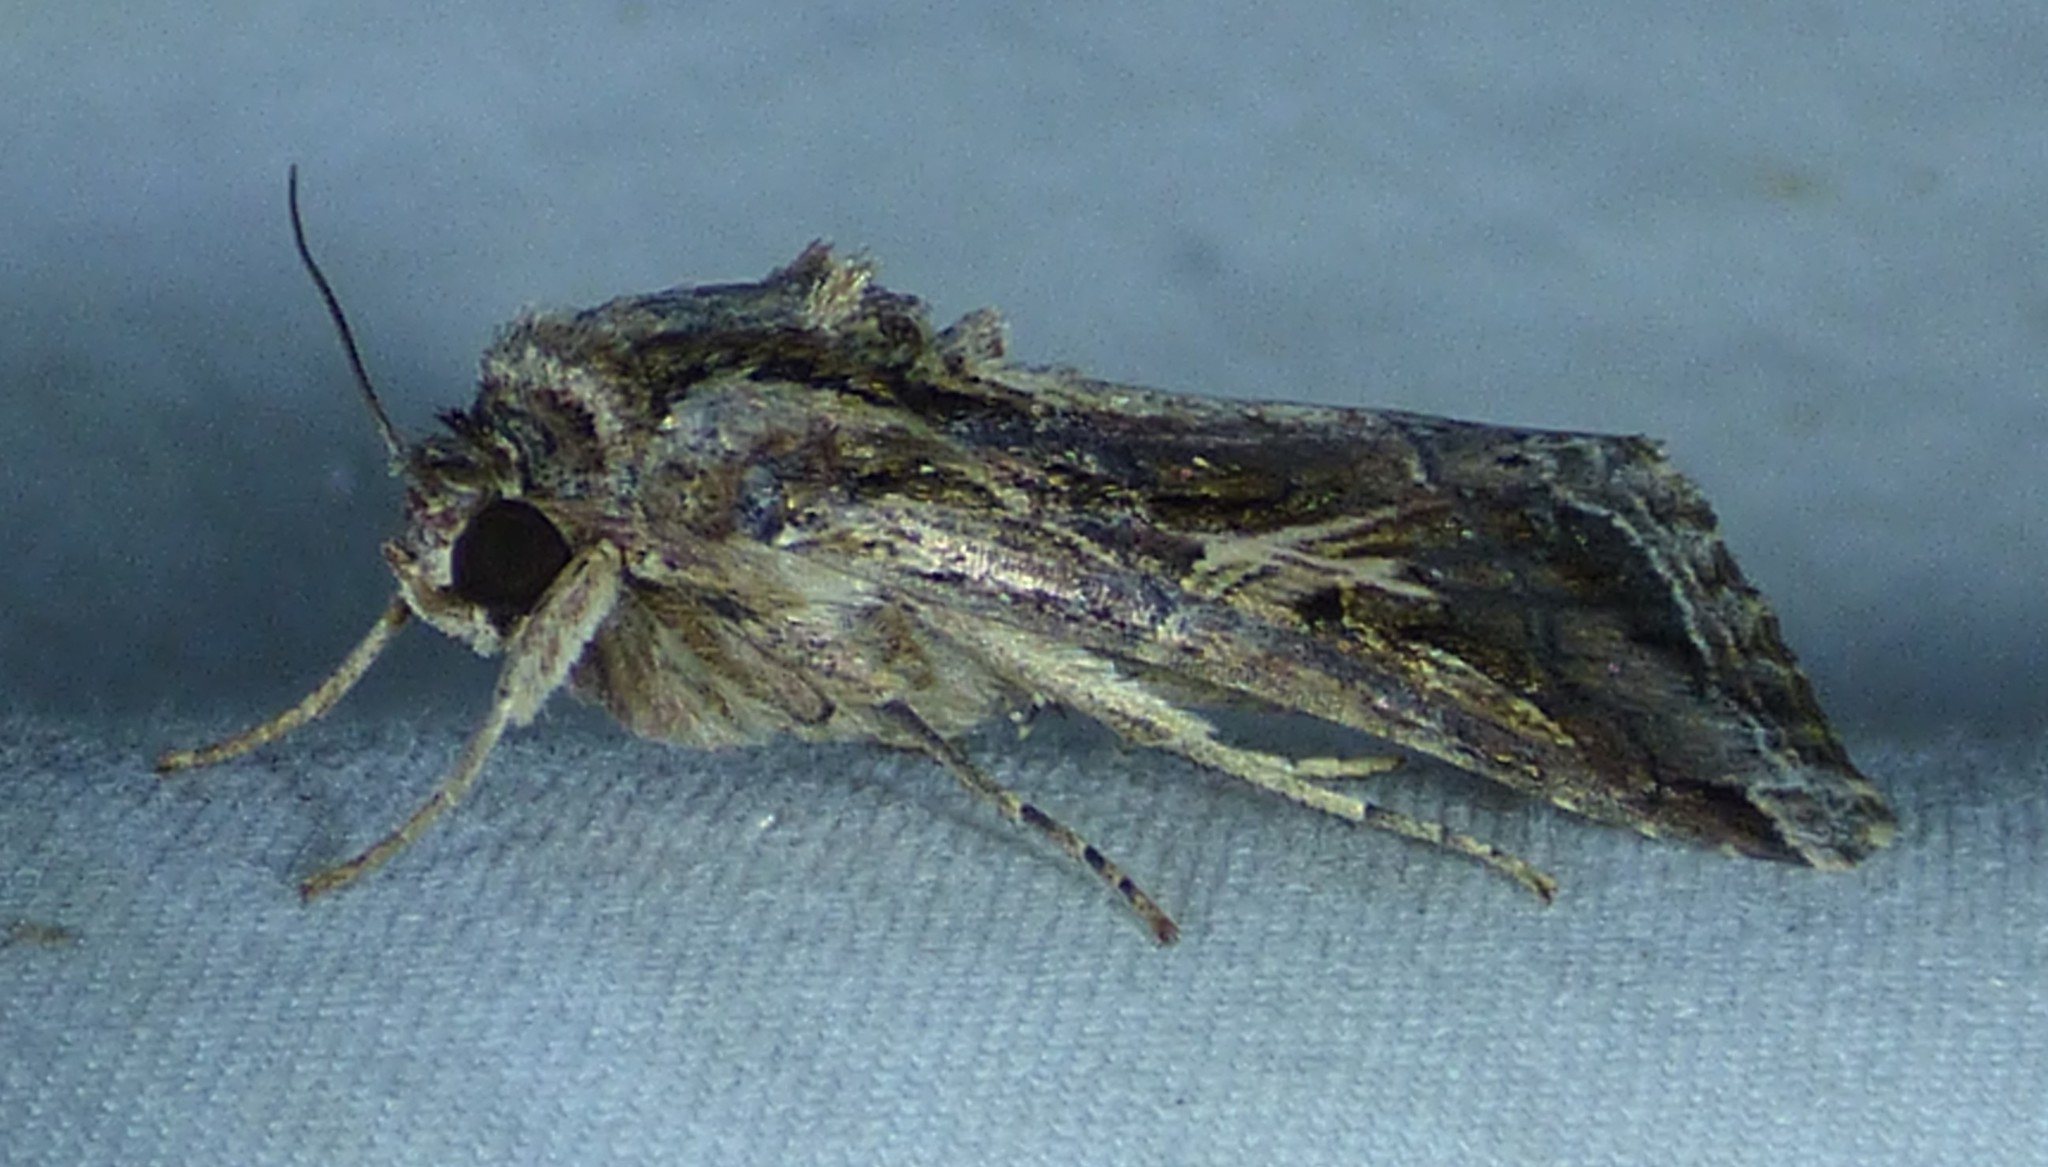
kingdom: Animalia
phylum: Arthropoda
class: Insecta
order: Lepidoptera
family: Noctuidae
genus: Spodoptera
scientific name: Spodoptera ornithogalli
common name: Yellow-striped armyworm
